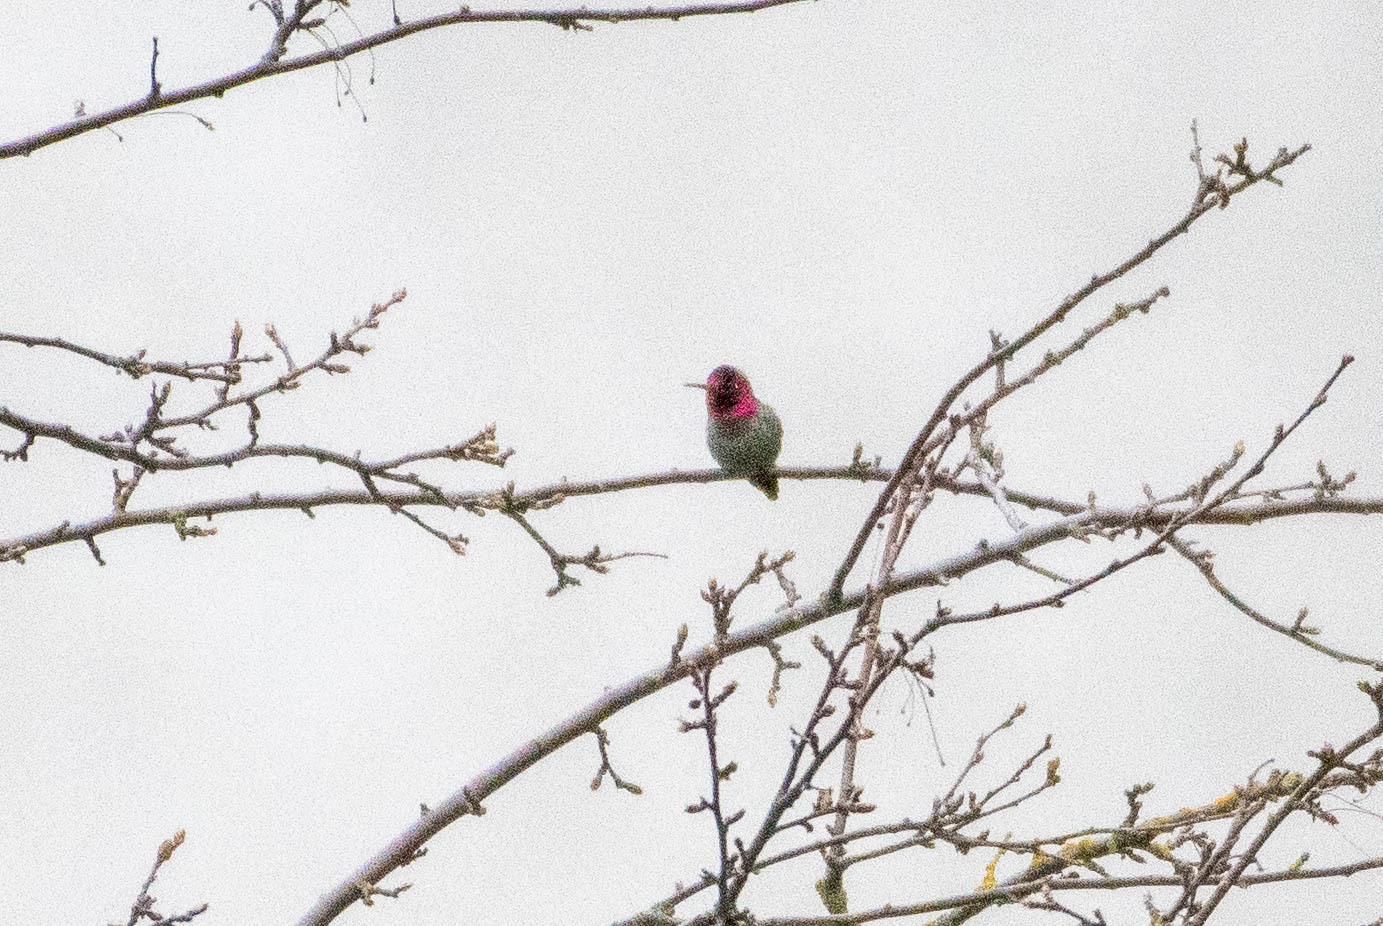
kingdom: Animalia
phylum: Chordata
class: Aves
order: Apodiformes
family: Trochilidae
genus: Calypte
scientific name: Calypte anna
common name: Anna's hummingbird
